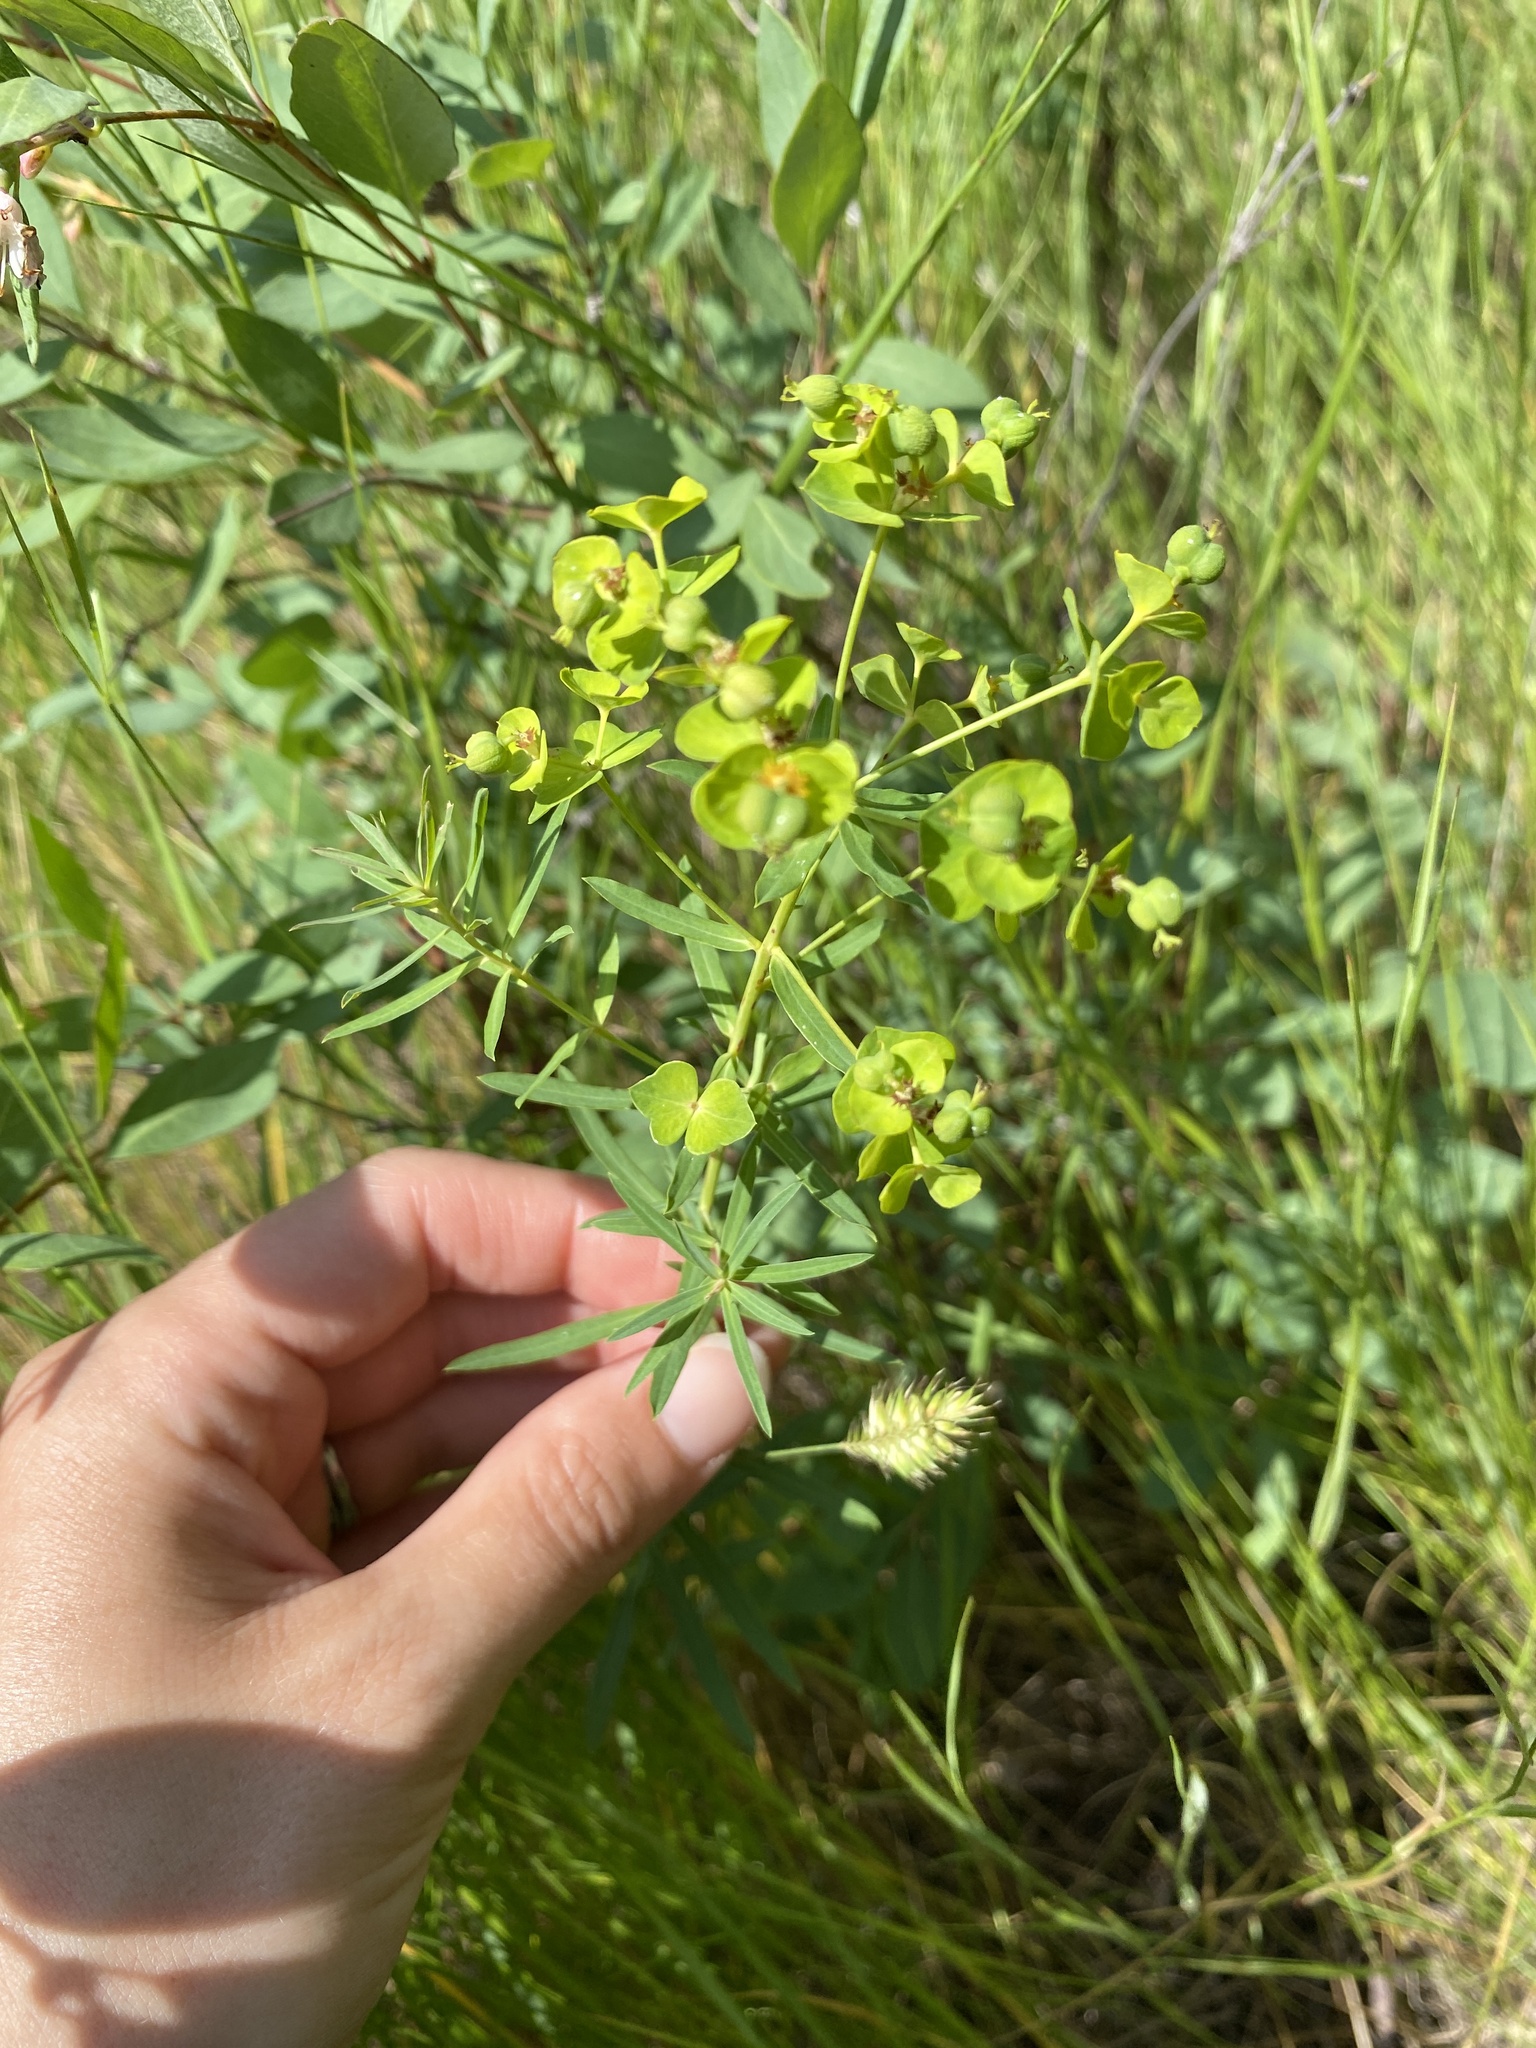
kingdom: Plantae
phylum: Tracheophyta
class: Magnoliopsida
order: Malpighiales
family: Euphorbiaceae
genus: Euphorbia
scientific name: Euphorbia virgata
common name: Leafy spurge
